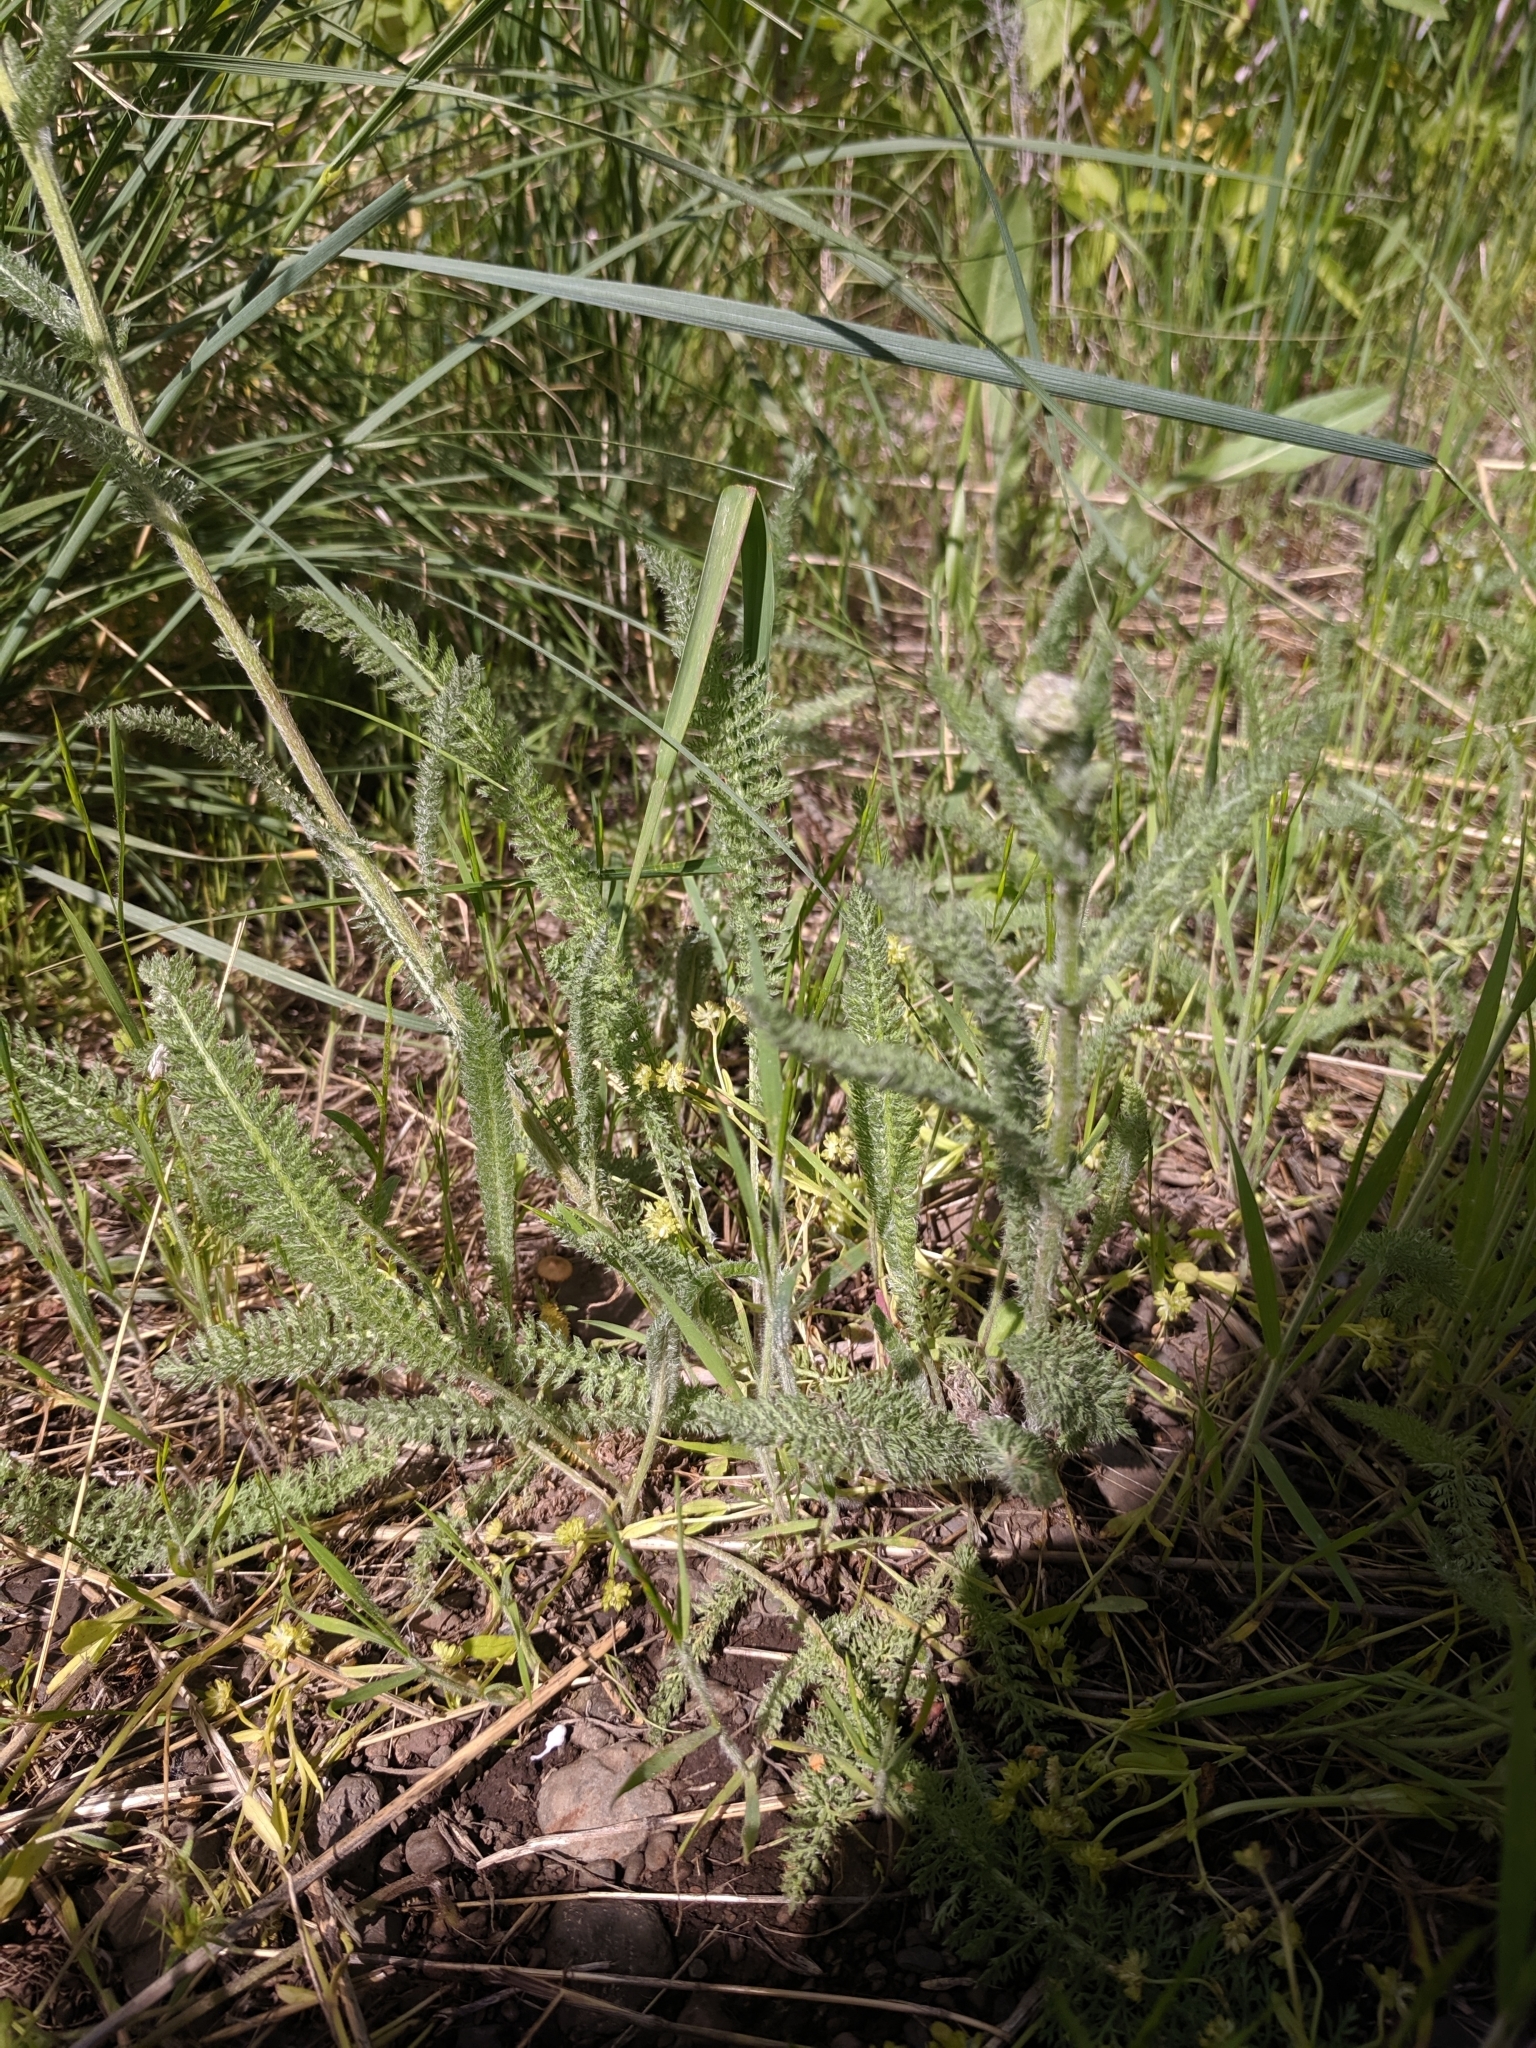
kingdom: Plantae
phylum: Tracheophyta
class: Magnoliopsida
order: Asterales
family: Asteraceae
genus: Achillea
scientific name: Achillea millefolium
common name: Yarrow
